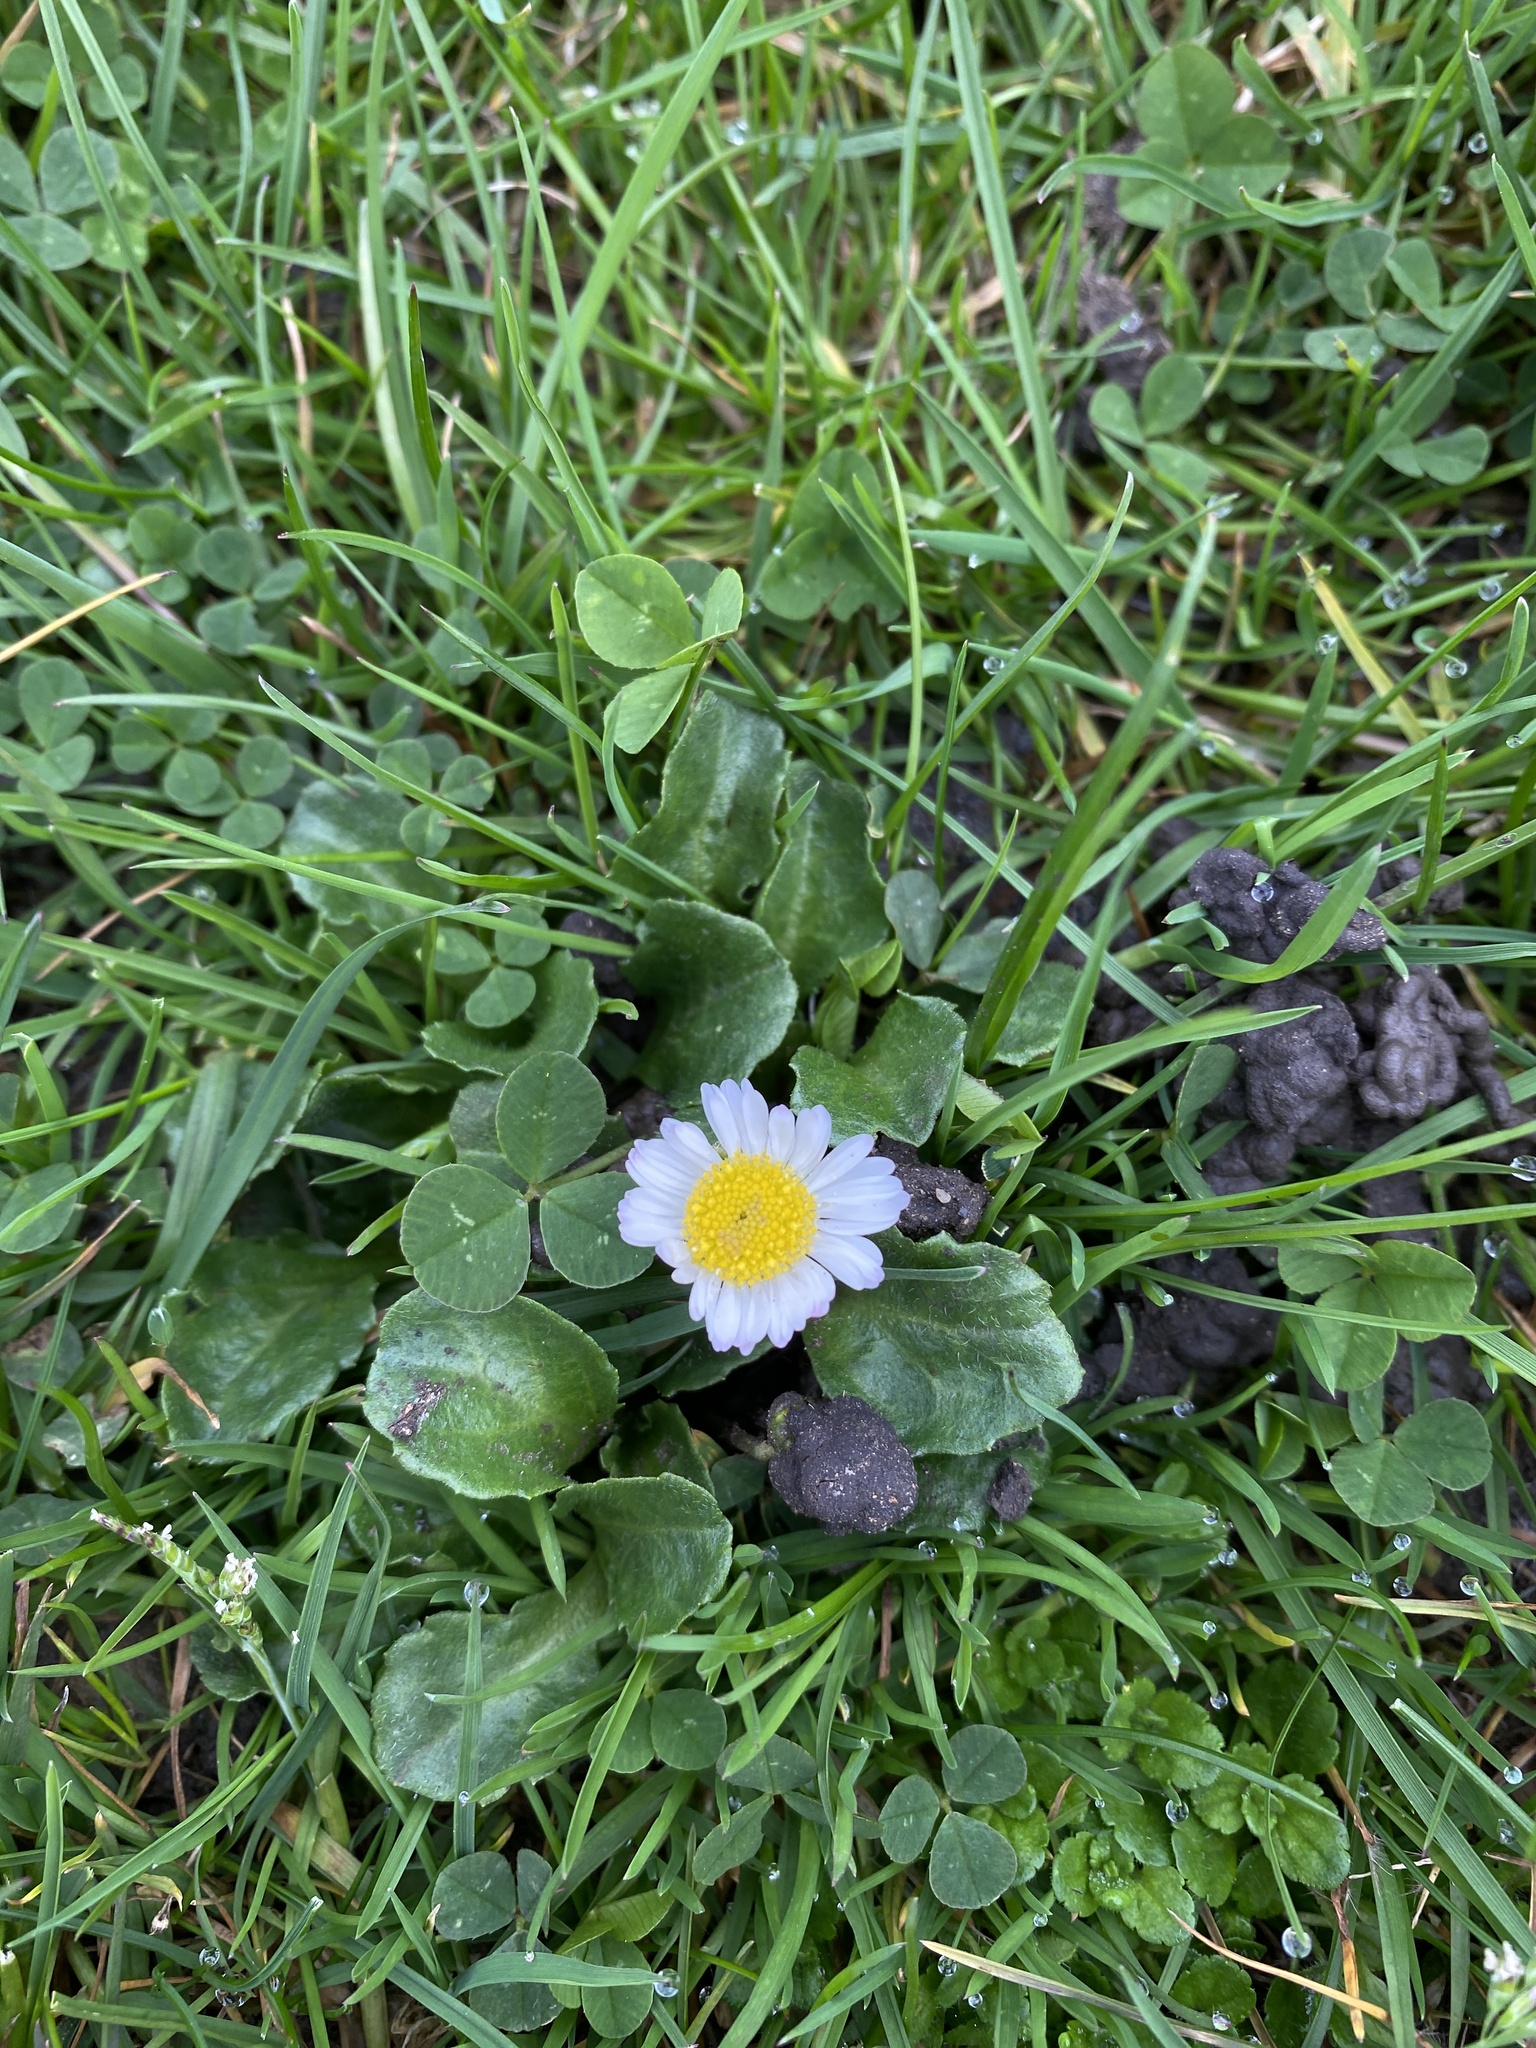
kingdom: Plantae
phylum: Tracheophyta
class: Magnoliopsida
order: Asterales
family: Asteraceae
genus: Bellis
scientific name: Bellis perennis
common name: Lawndaisy
